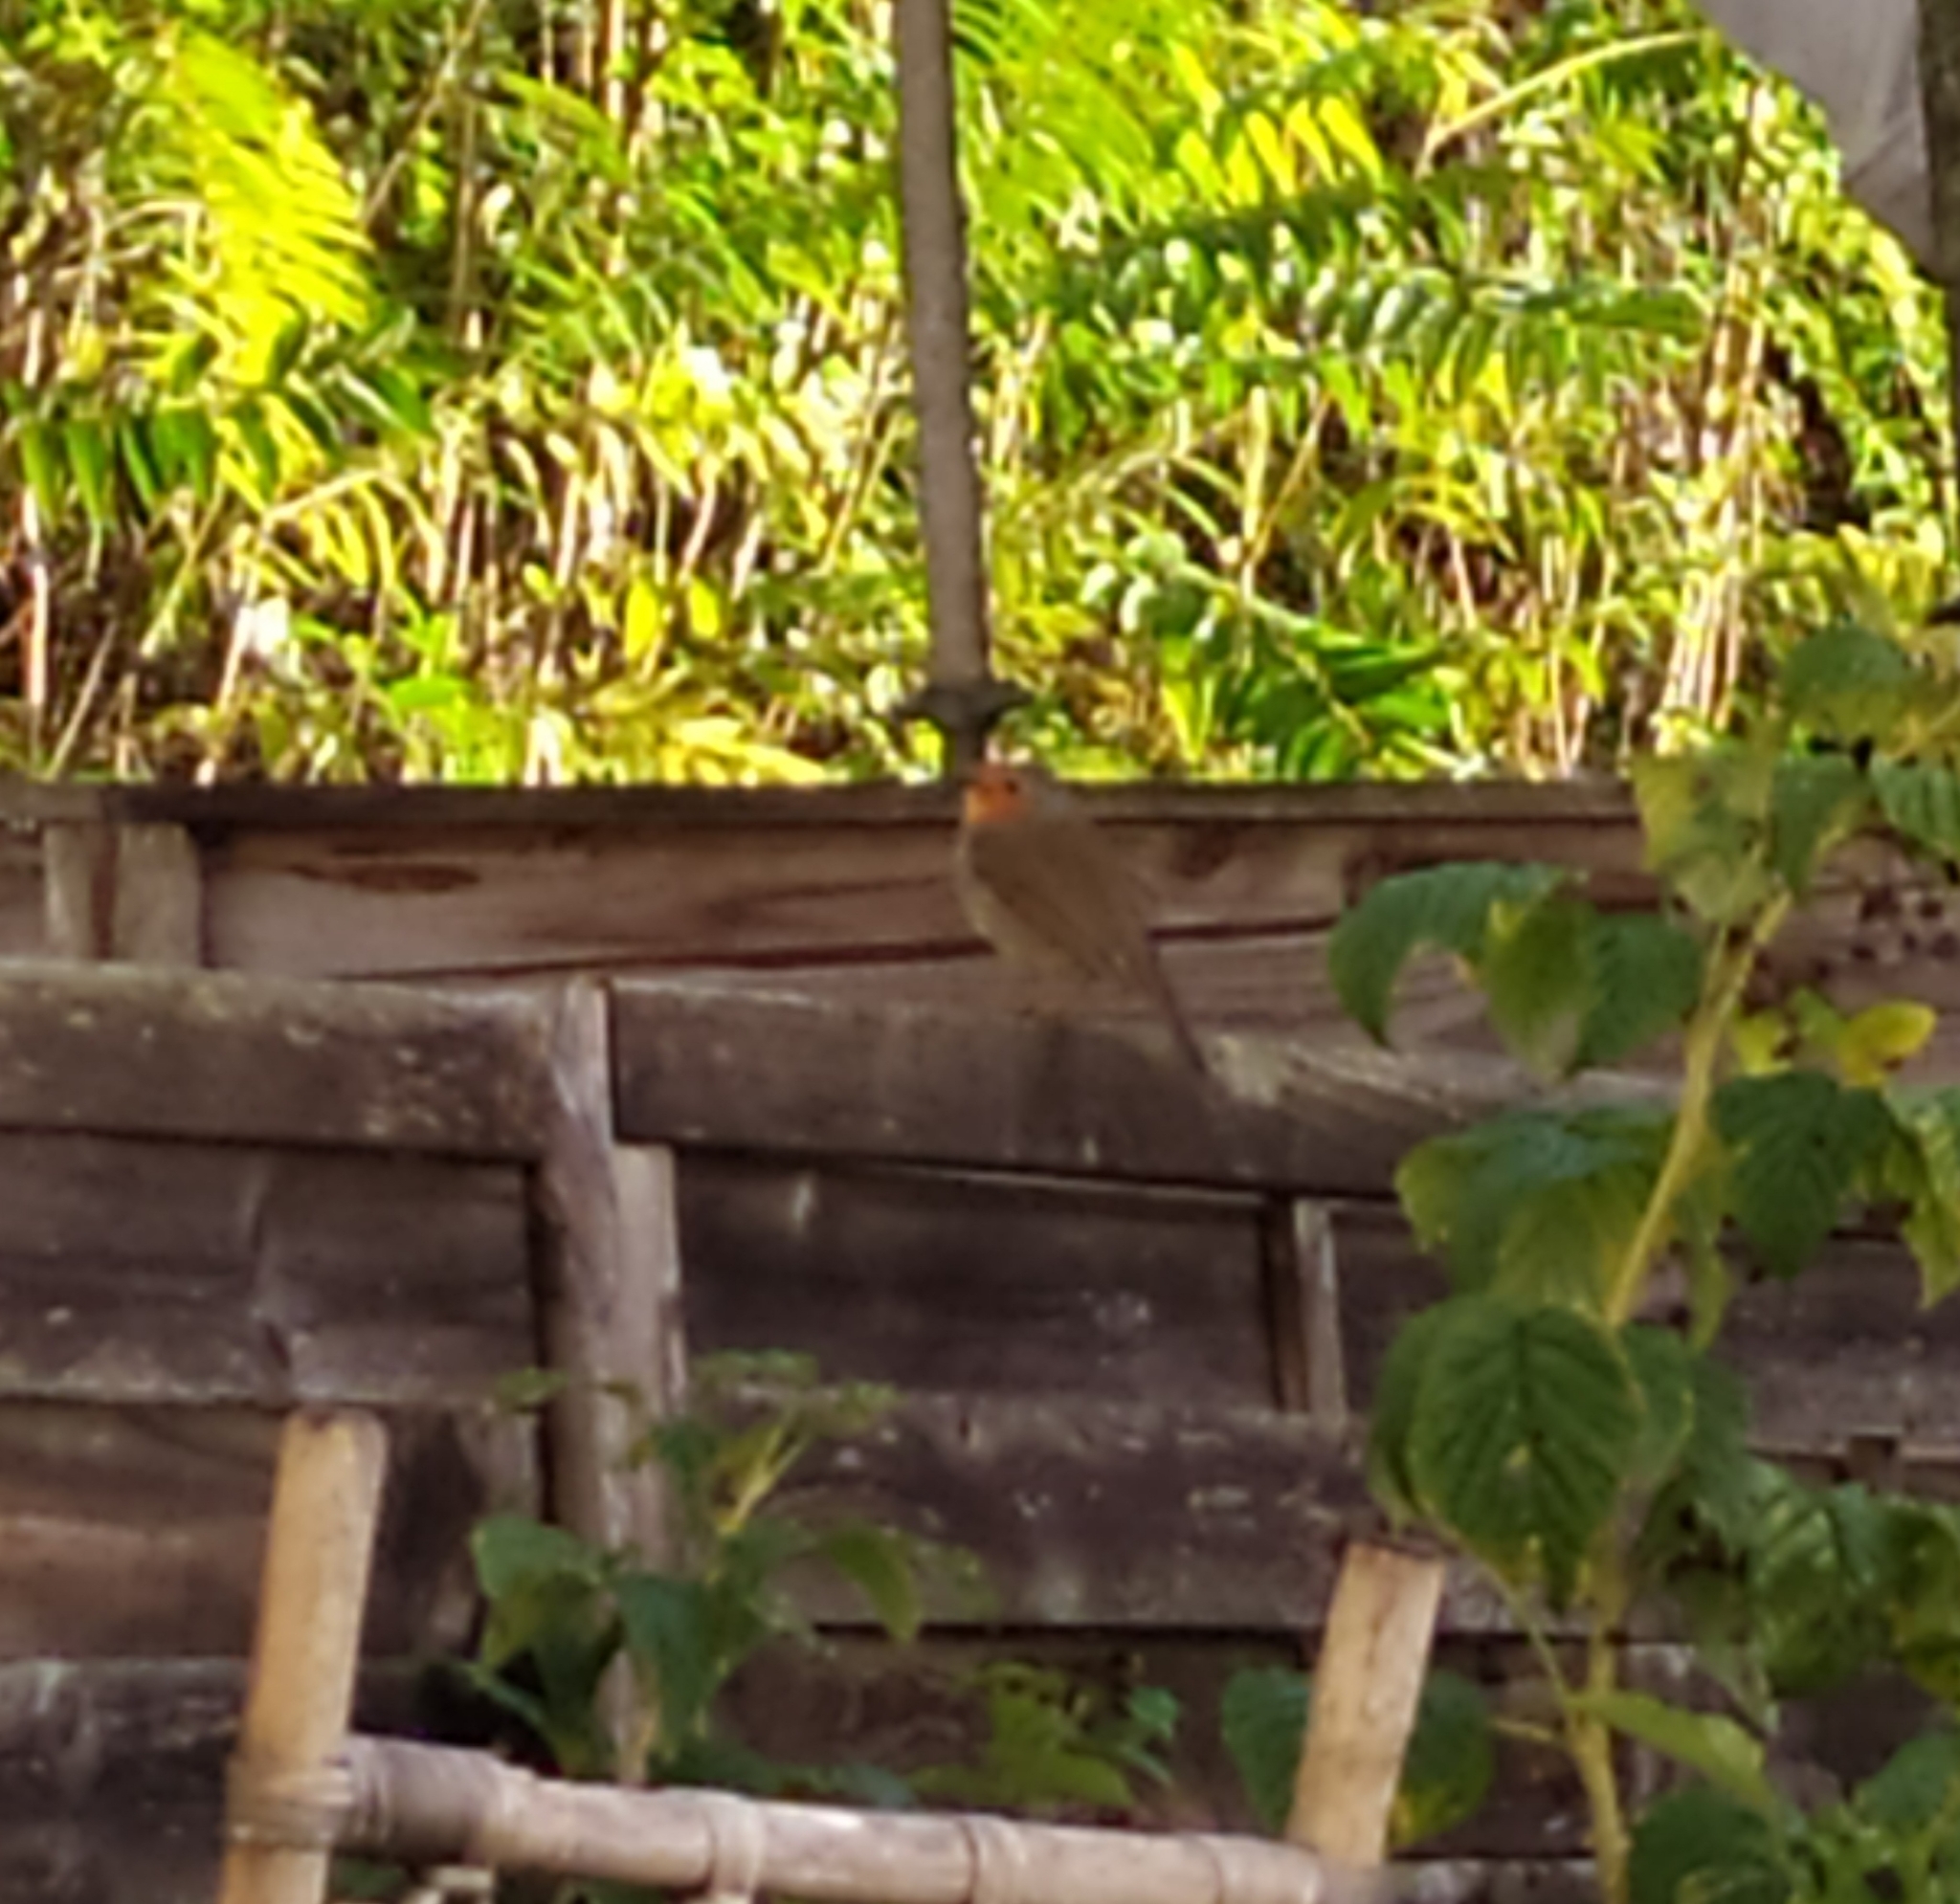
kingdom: Animalia
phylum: Chordata
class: Aves
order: Passeriformes
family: Muscicapidae
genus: Erithacus
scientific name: Erithacus rubecula
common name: European robin
